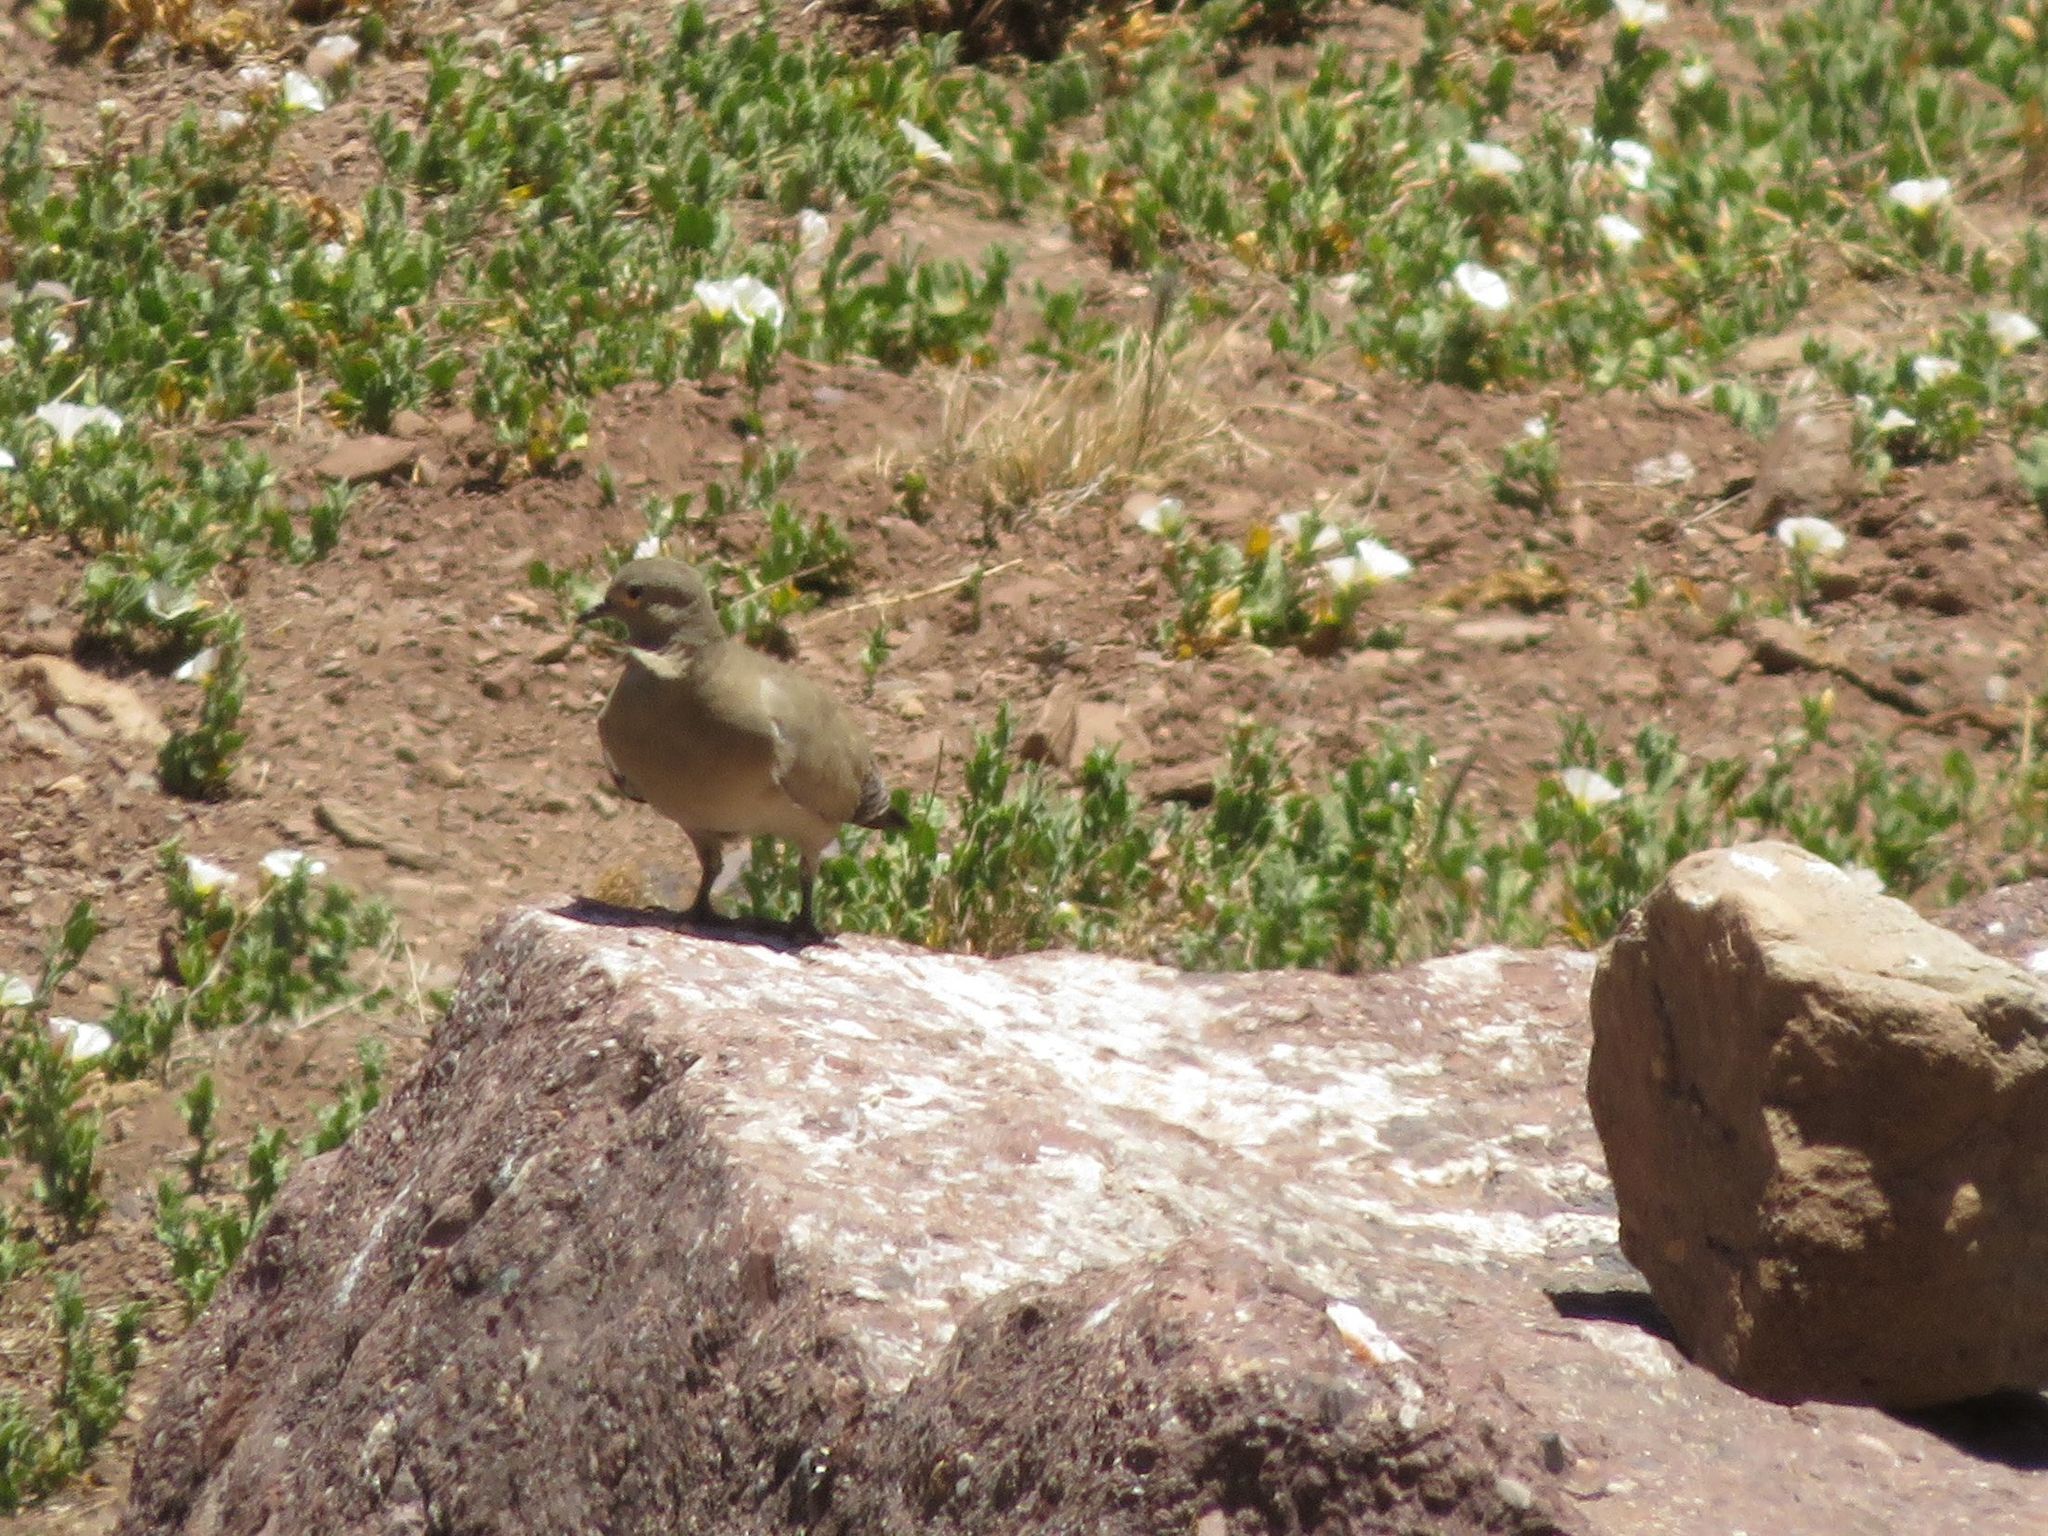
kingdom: Animalia
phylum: Chordata
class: Aves
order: Columbiformes
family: Columbidae
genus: Metriopelia
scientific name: Metriopelia melanoptera
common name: Black-winged ground dove
